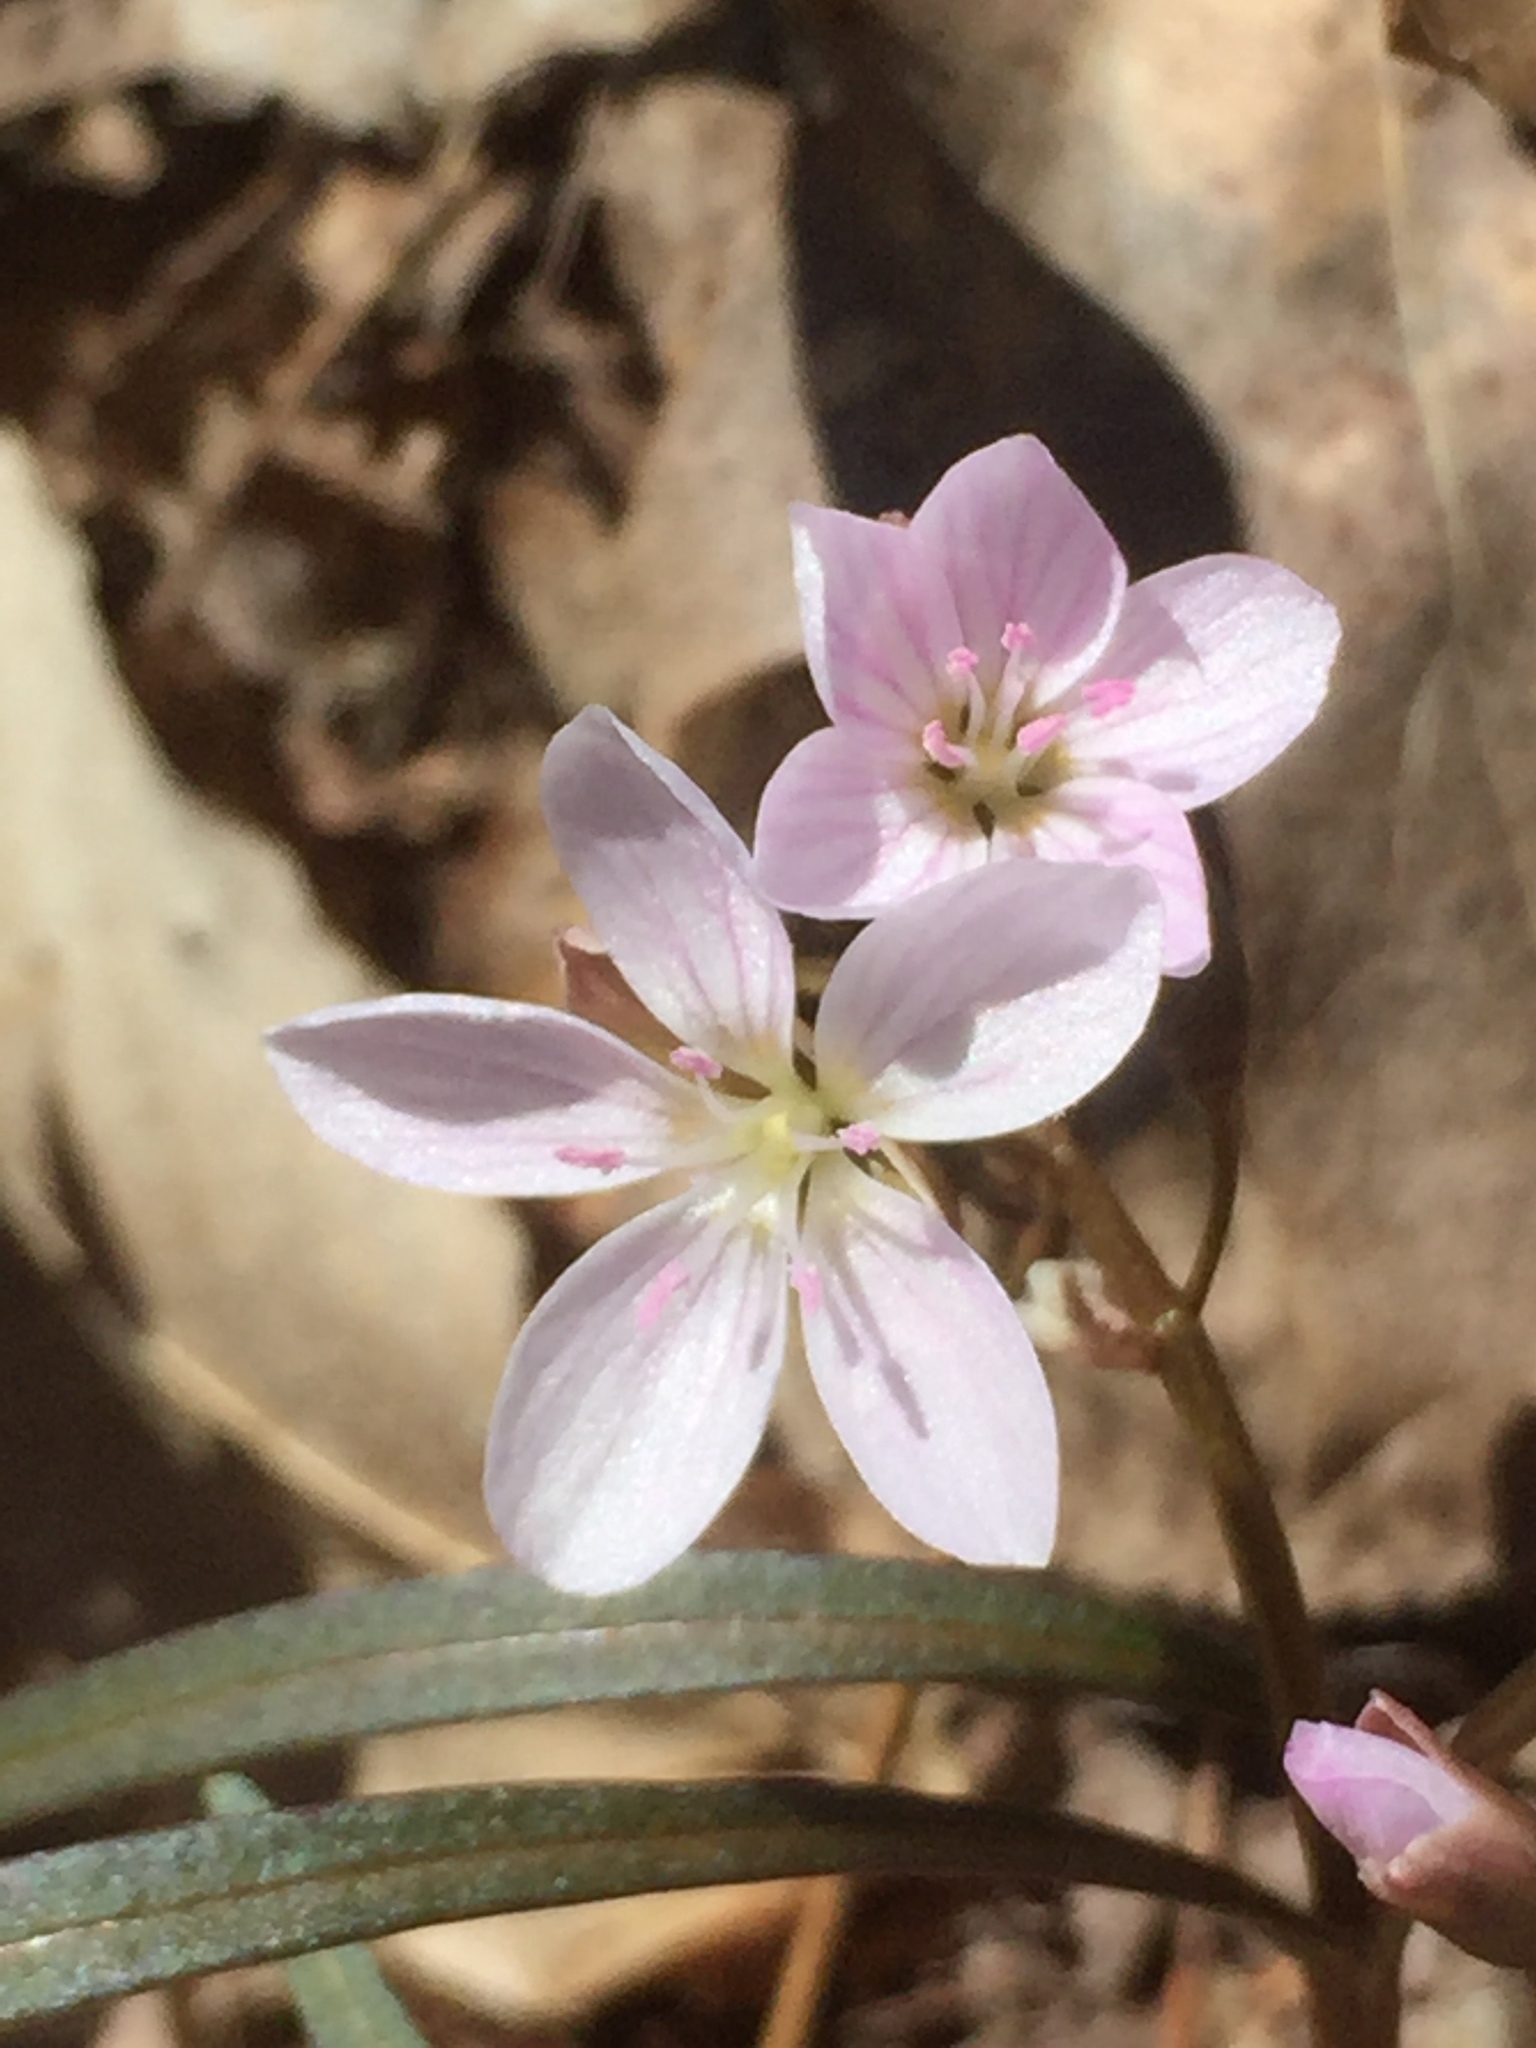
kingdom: Plantae
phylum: Tracheophyta
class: Magnoliopsida
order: Caryophyllales
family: Montiaceae
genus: Claytonia
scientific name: Claytonia virginica
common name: Virginia springbeauty
